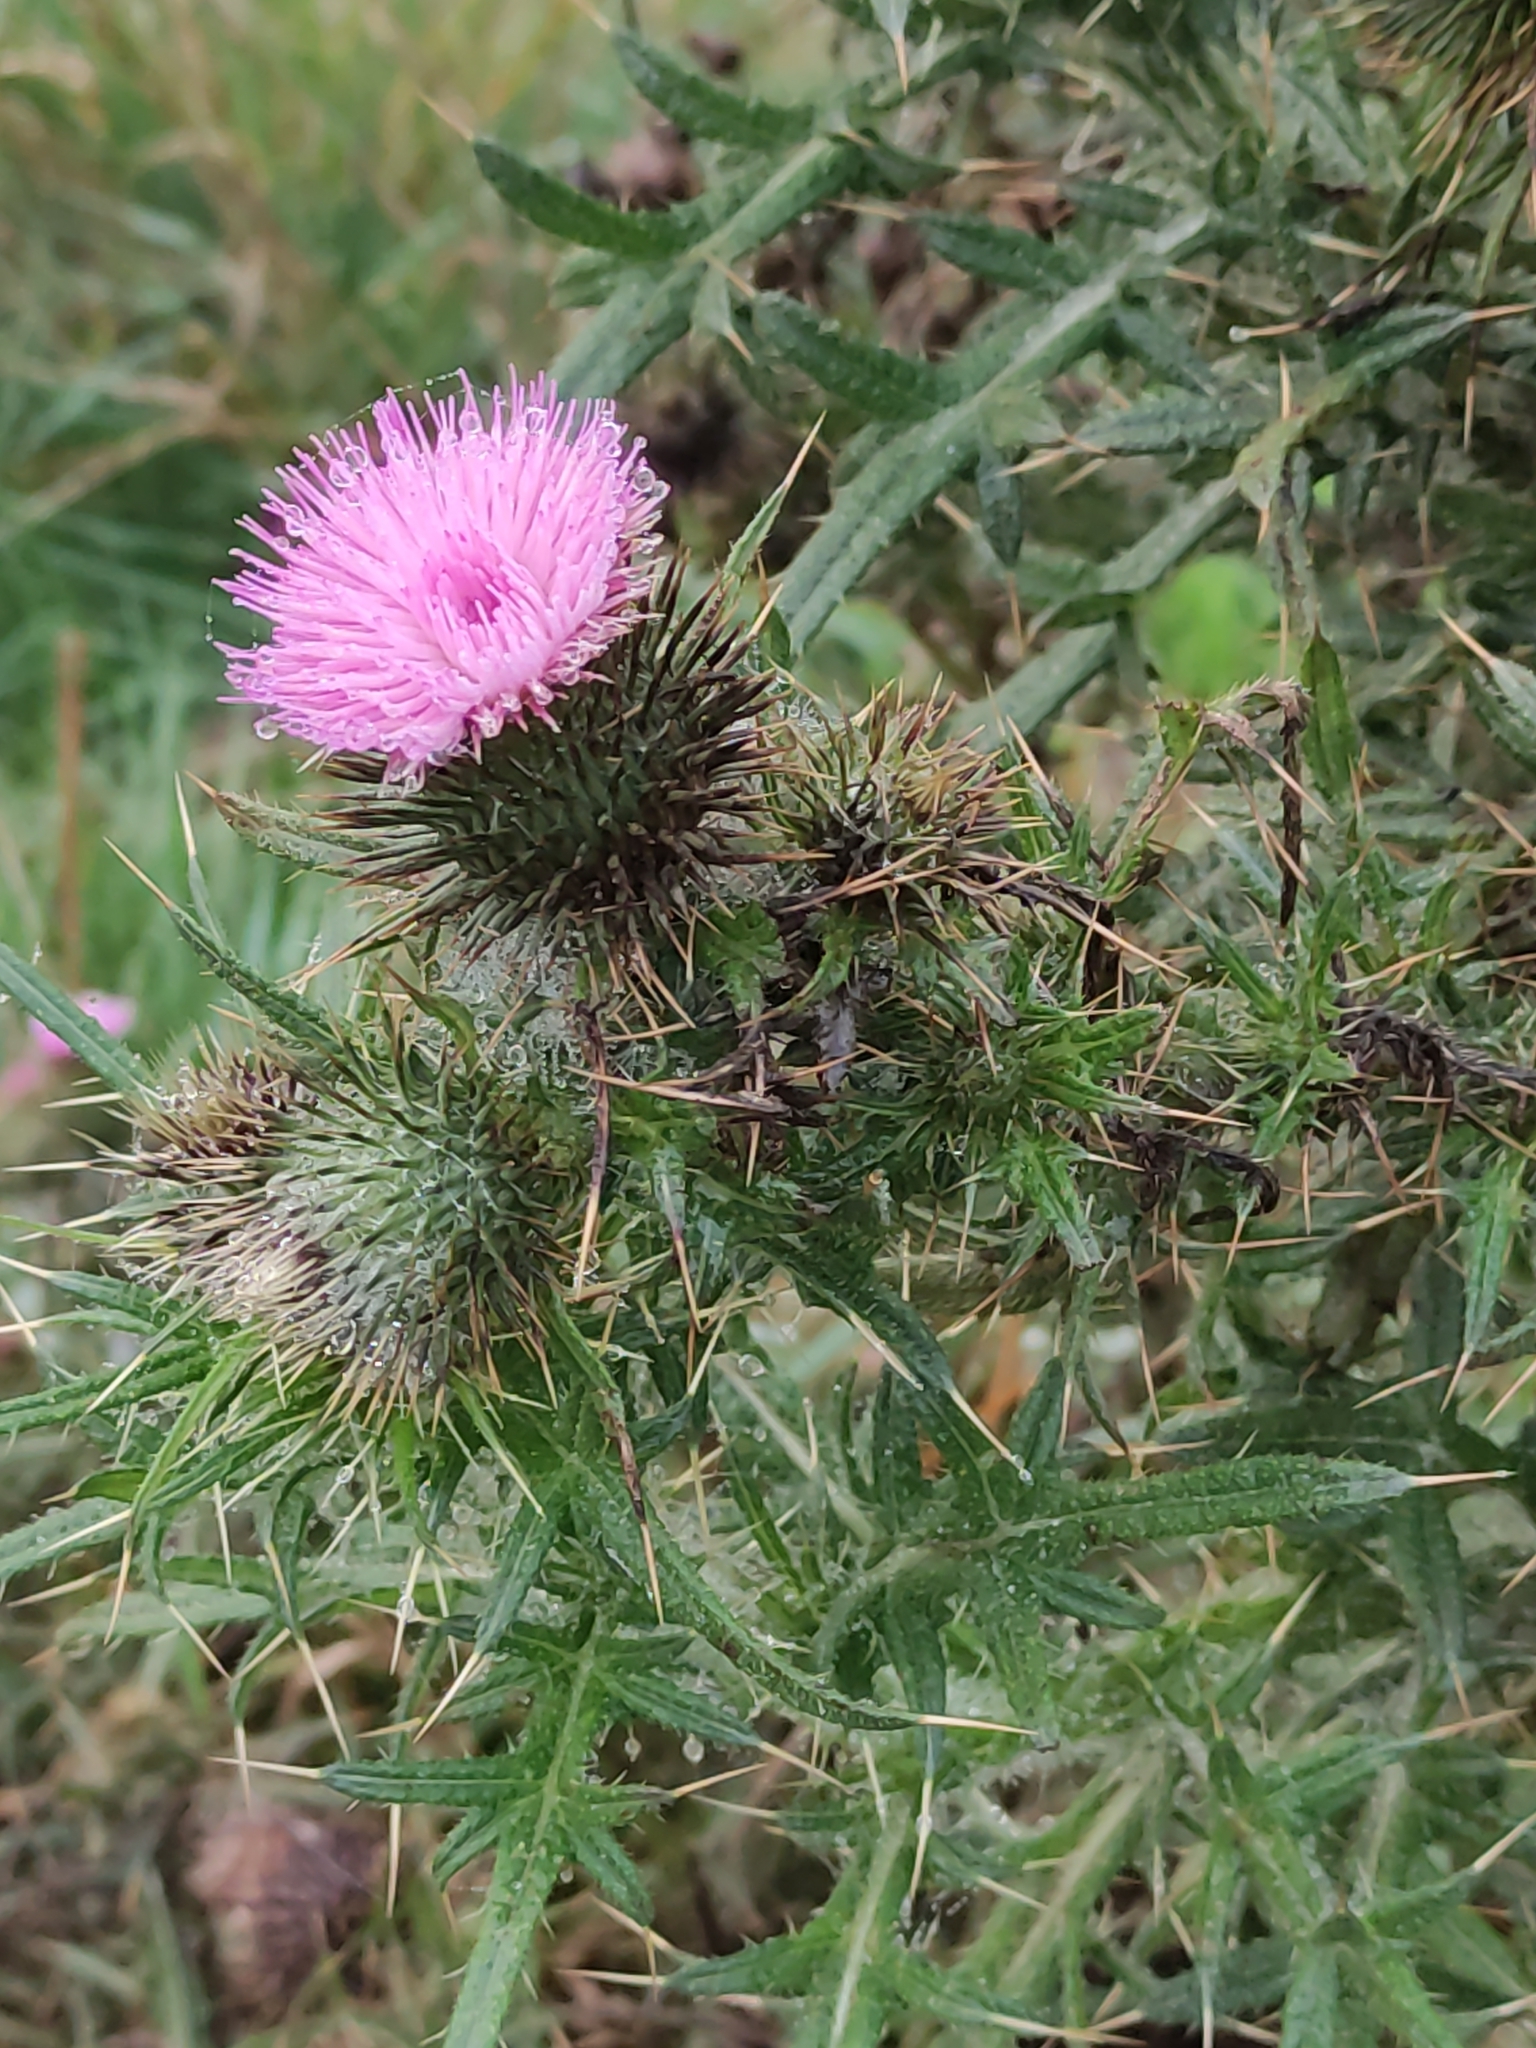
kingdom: Plantae
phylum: Tracheophyta
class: Magnoliopsida
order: Asterales
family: Asteraceae
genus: Cirsium
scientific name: Cirsium vulgare
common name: Bull thistle
